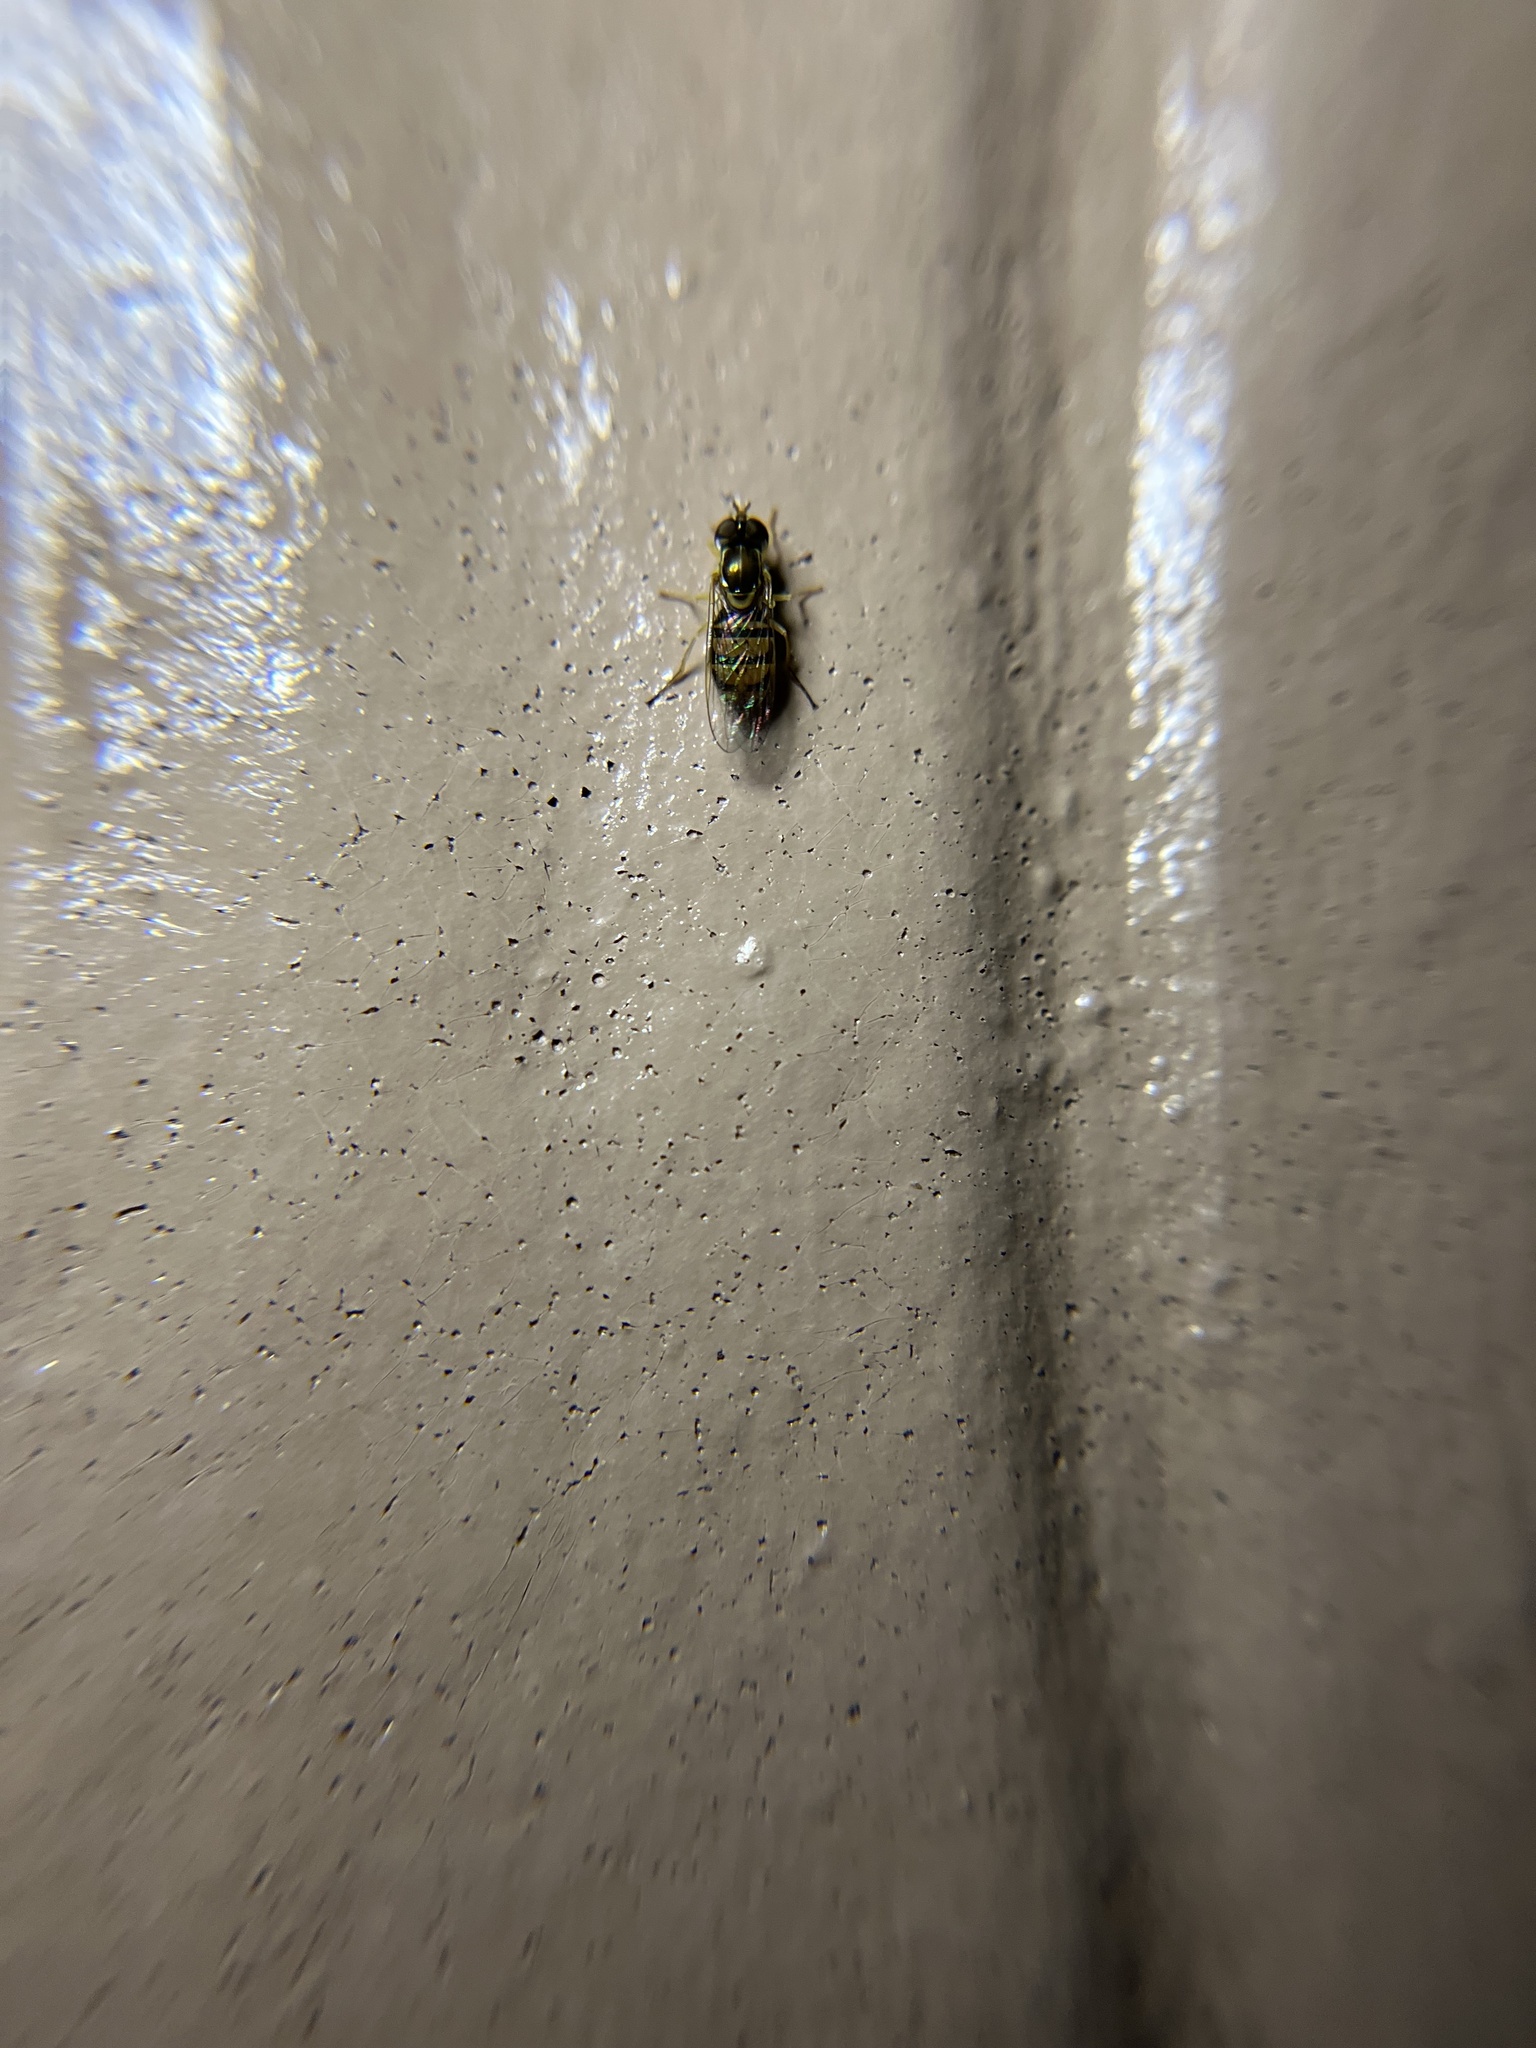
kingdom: Animalia
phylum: Arthropoda
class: Insecta
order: Diptera
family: Syrphidae
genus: Toxomerus
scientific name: Toxomerus marginatus
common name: Syrphid fly
